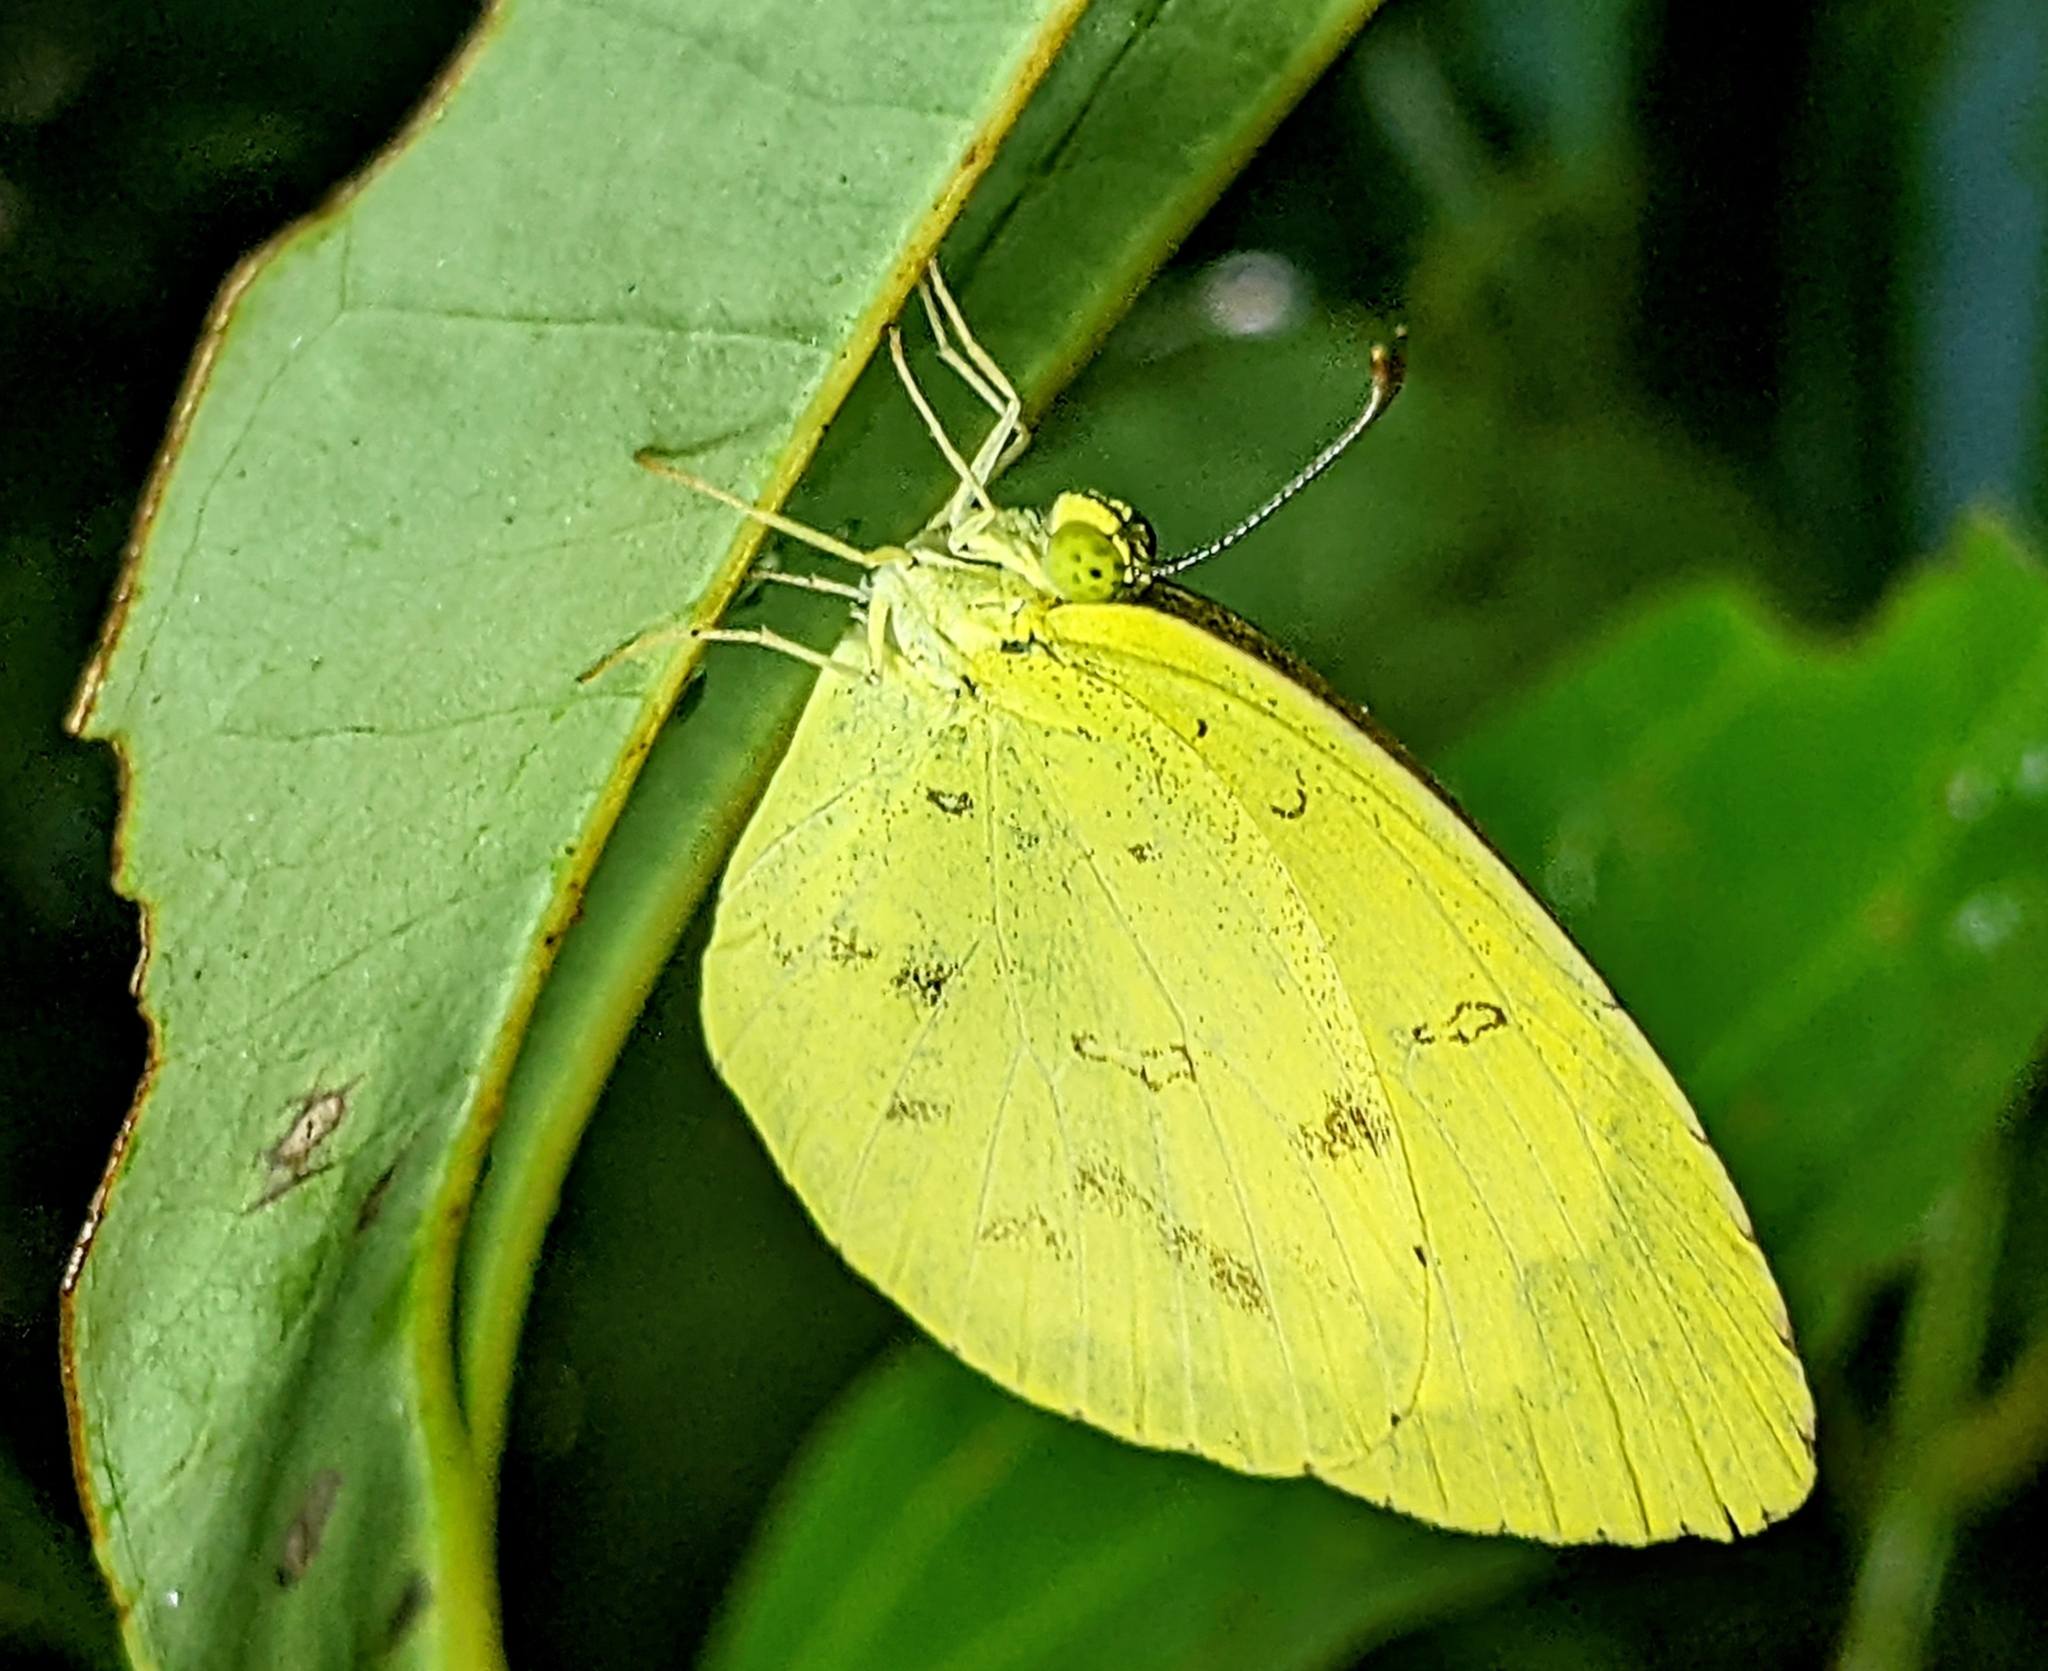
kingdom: Animalia
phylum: Arthropoda
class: Insecta
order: Lepidoptera
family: Pieridae
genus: Eurema
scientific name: Eurema hecabe
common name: Pale grass yellow
